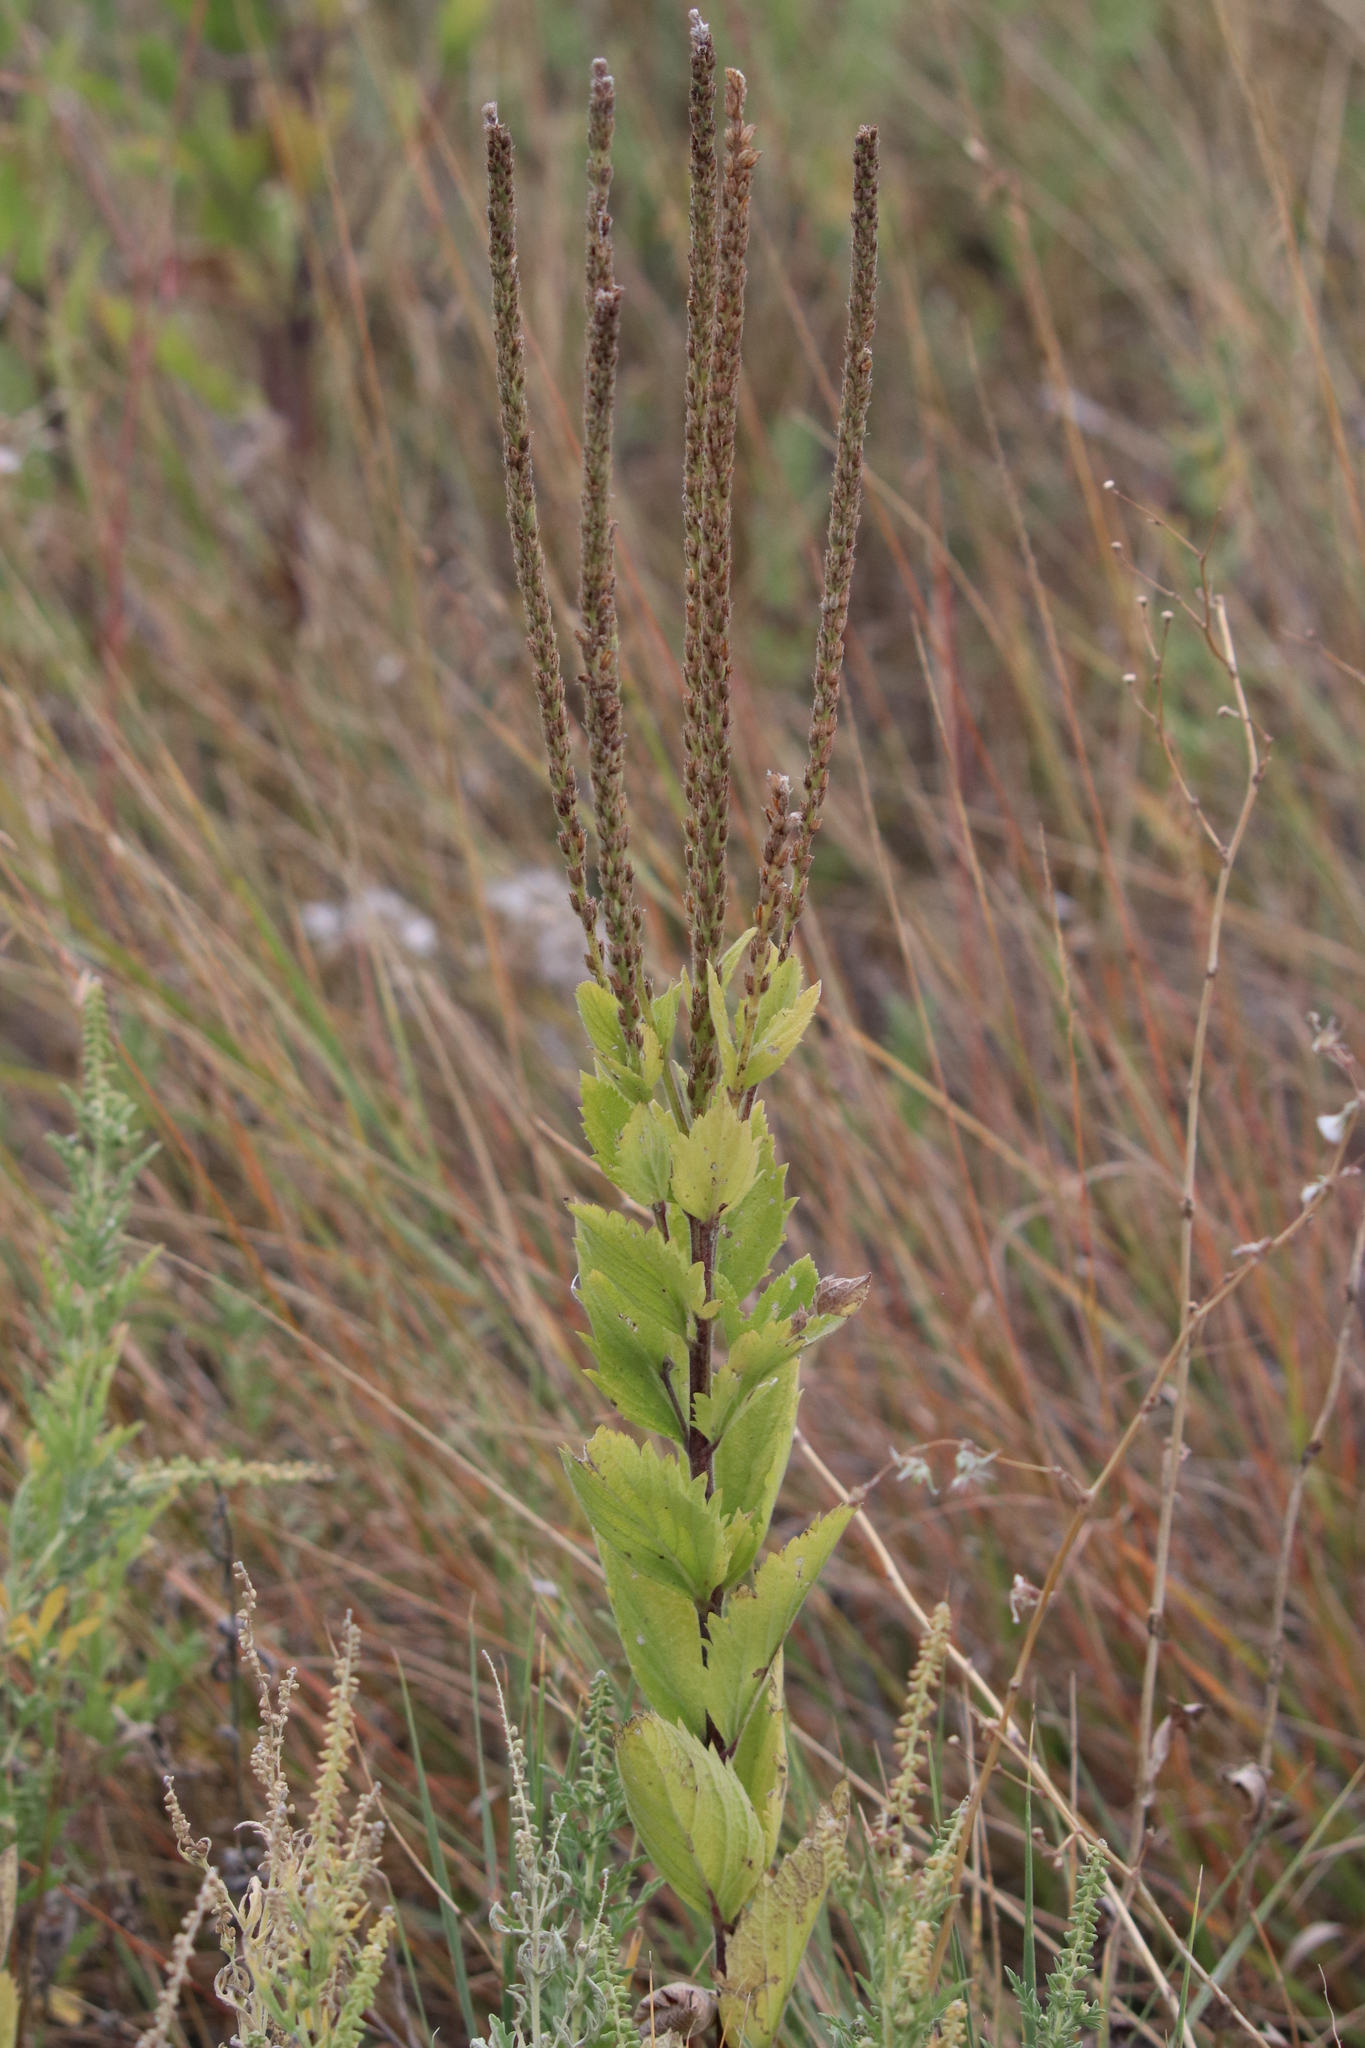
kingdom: Plantae
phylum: Tracheophyta
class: Magnoliopsida
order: Lamiales
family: Verbenaceae
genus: Verbena
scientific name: Verbena stricta
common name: Hoary vervain
